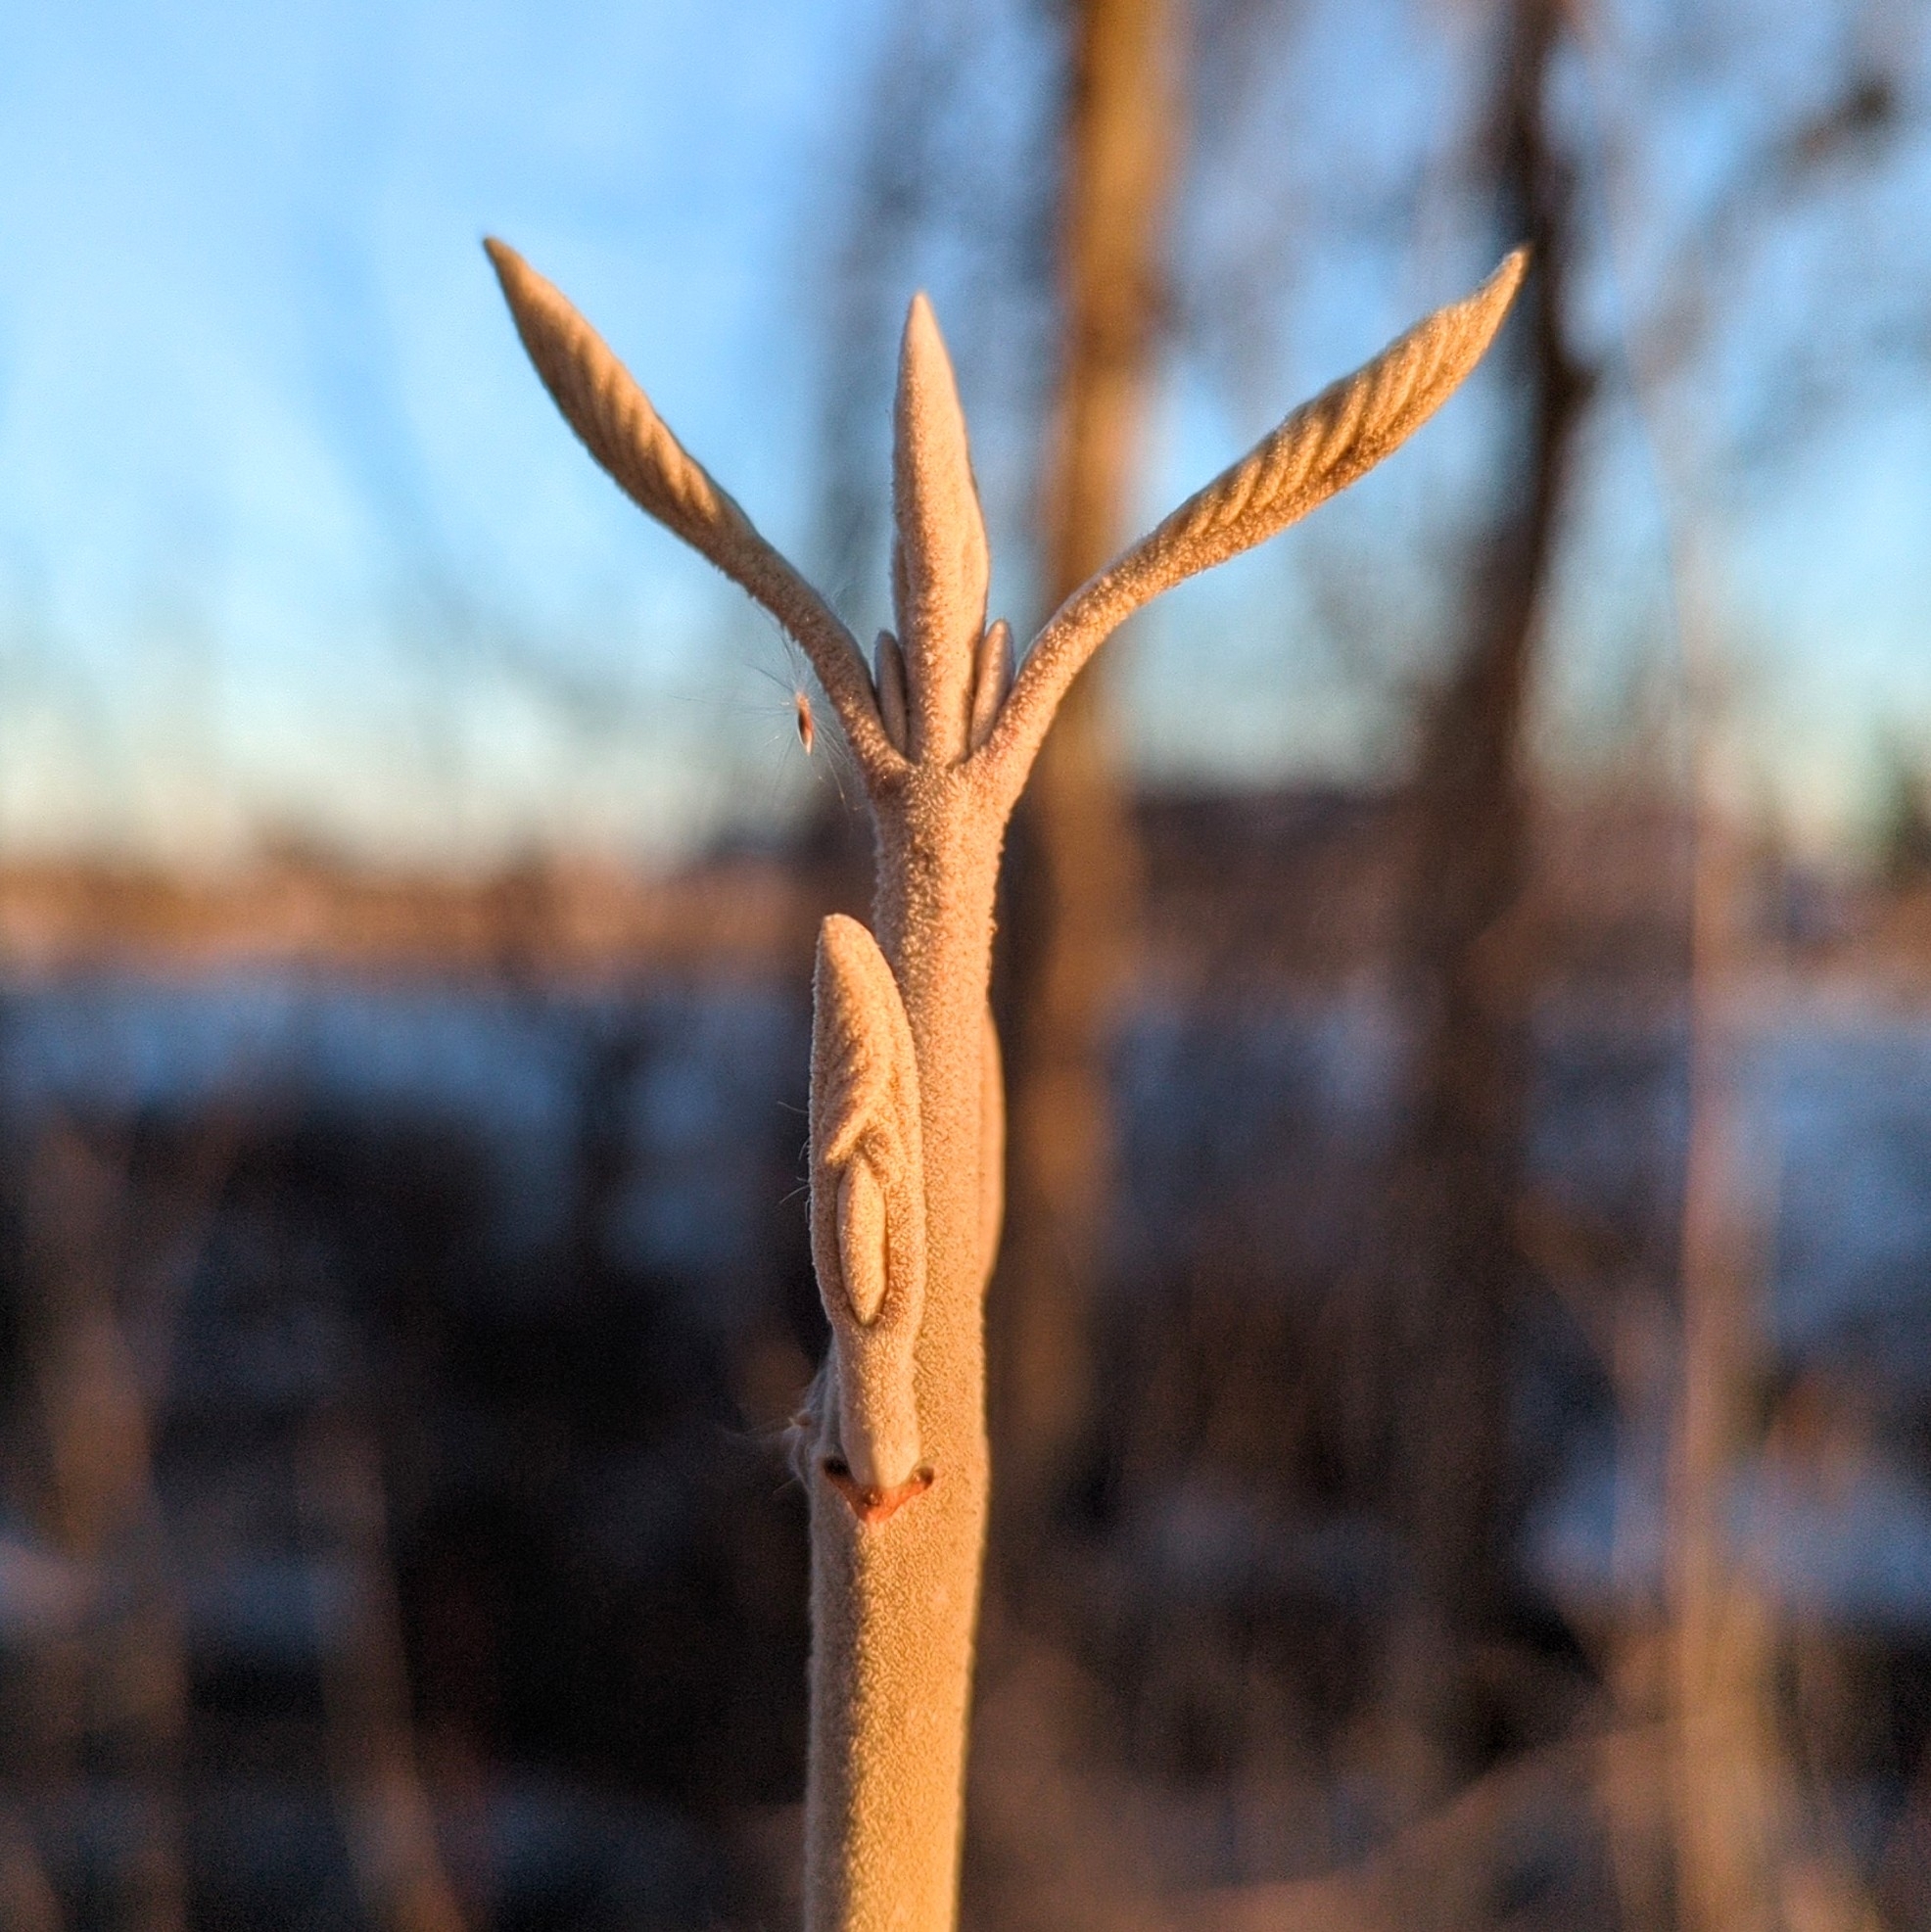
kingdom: Plantae
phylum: Tracheophyta
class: Magnoliopsida
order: Dipsacales
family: Viburnaceae
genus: Viburnum
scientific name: Viburnum lantanoides
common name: Hobblebush
